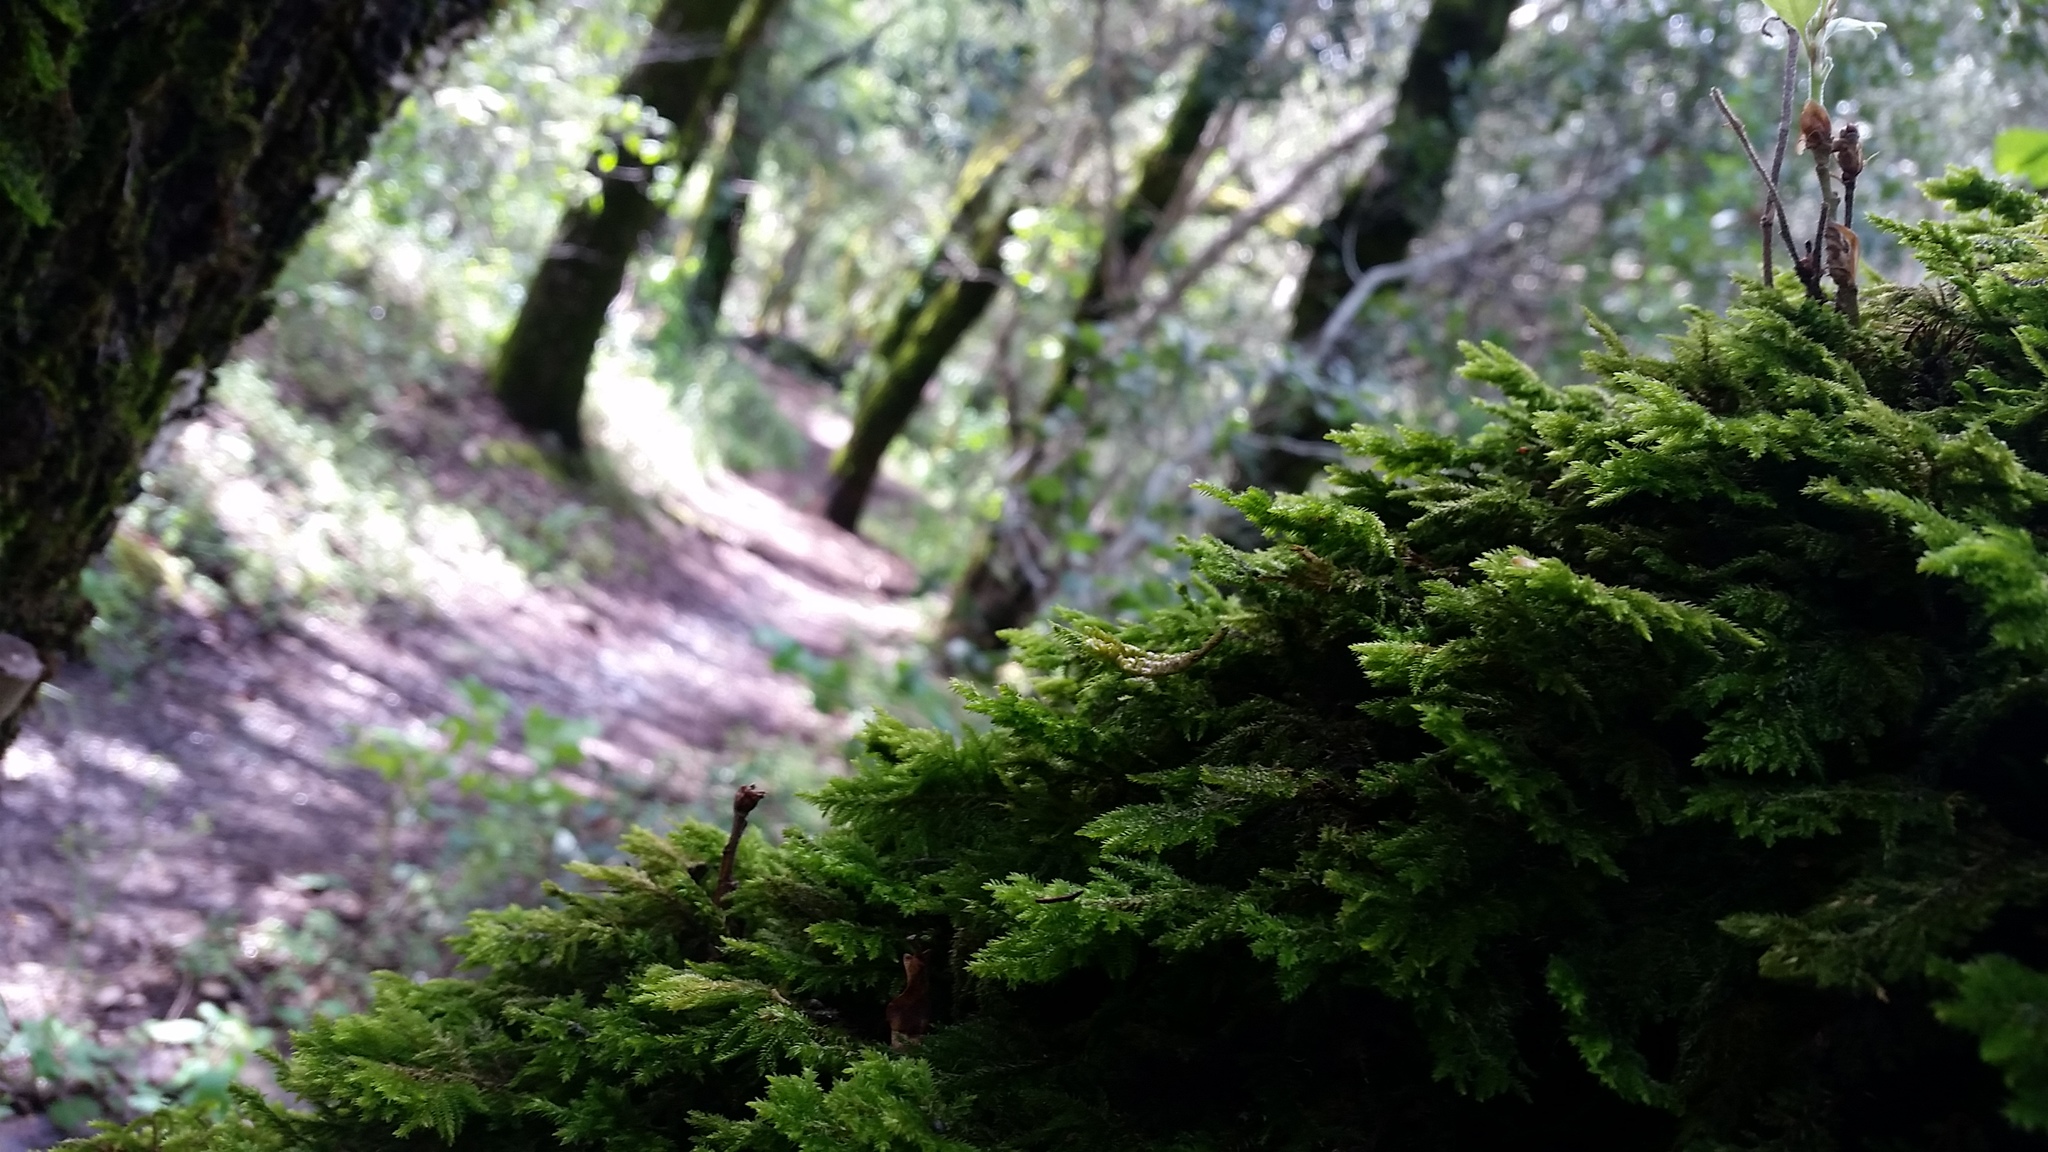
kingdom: Plantae
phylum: Bryophyta
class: Bryopsida
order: Hypnales
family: Cryphaeaceae
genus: Dendroalsia
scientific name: Dendroalsia abietina
